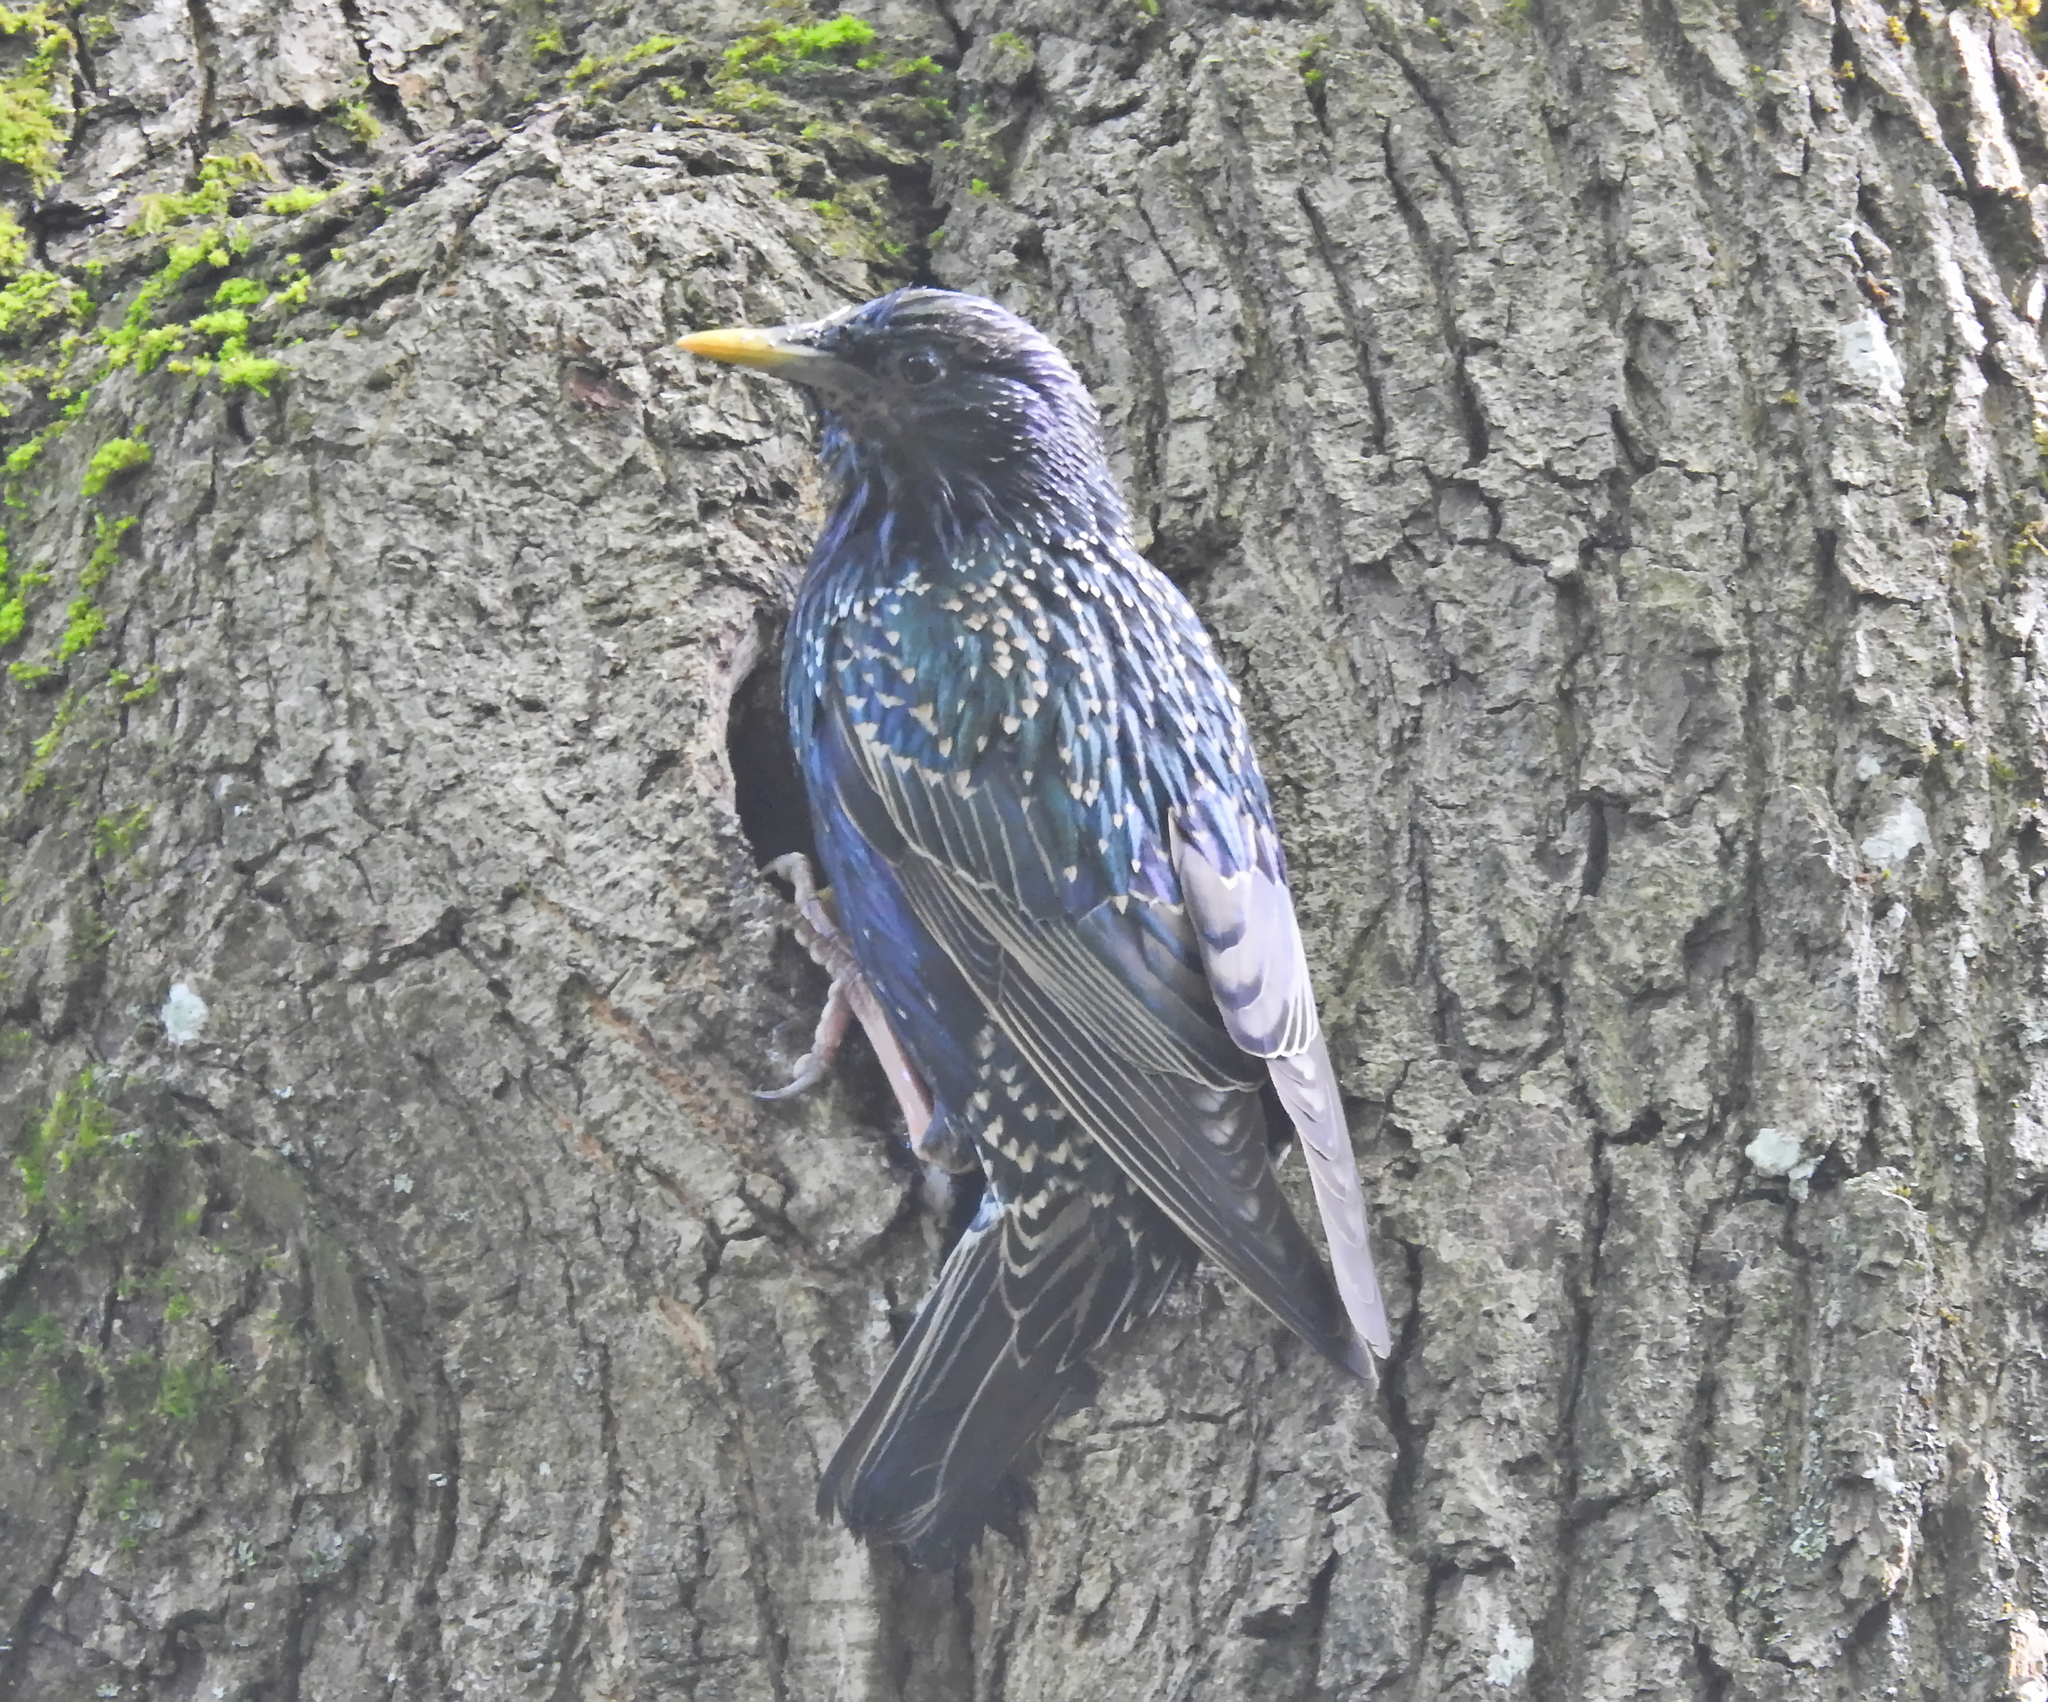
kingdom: Animalia
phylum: Chordata
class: Aves
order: Passeriformes
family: Sturnidae
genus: Sturnus
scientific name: Sturnus vulgaris
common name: Common starling
